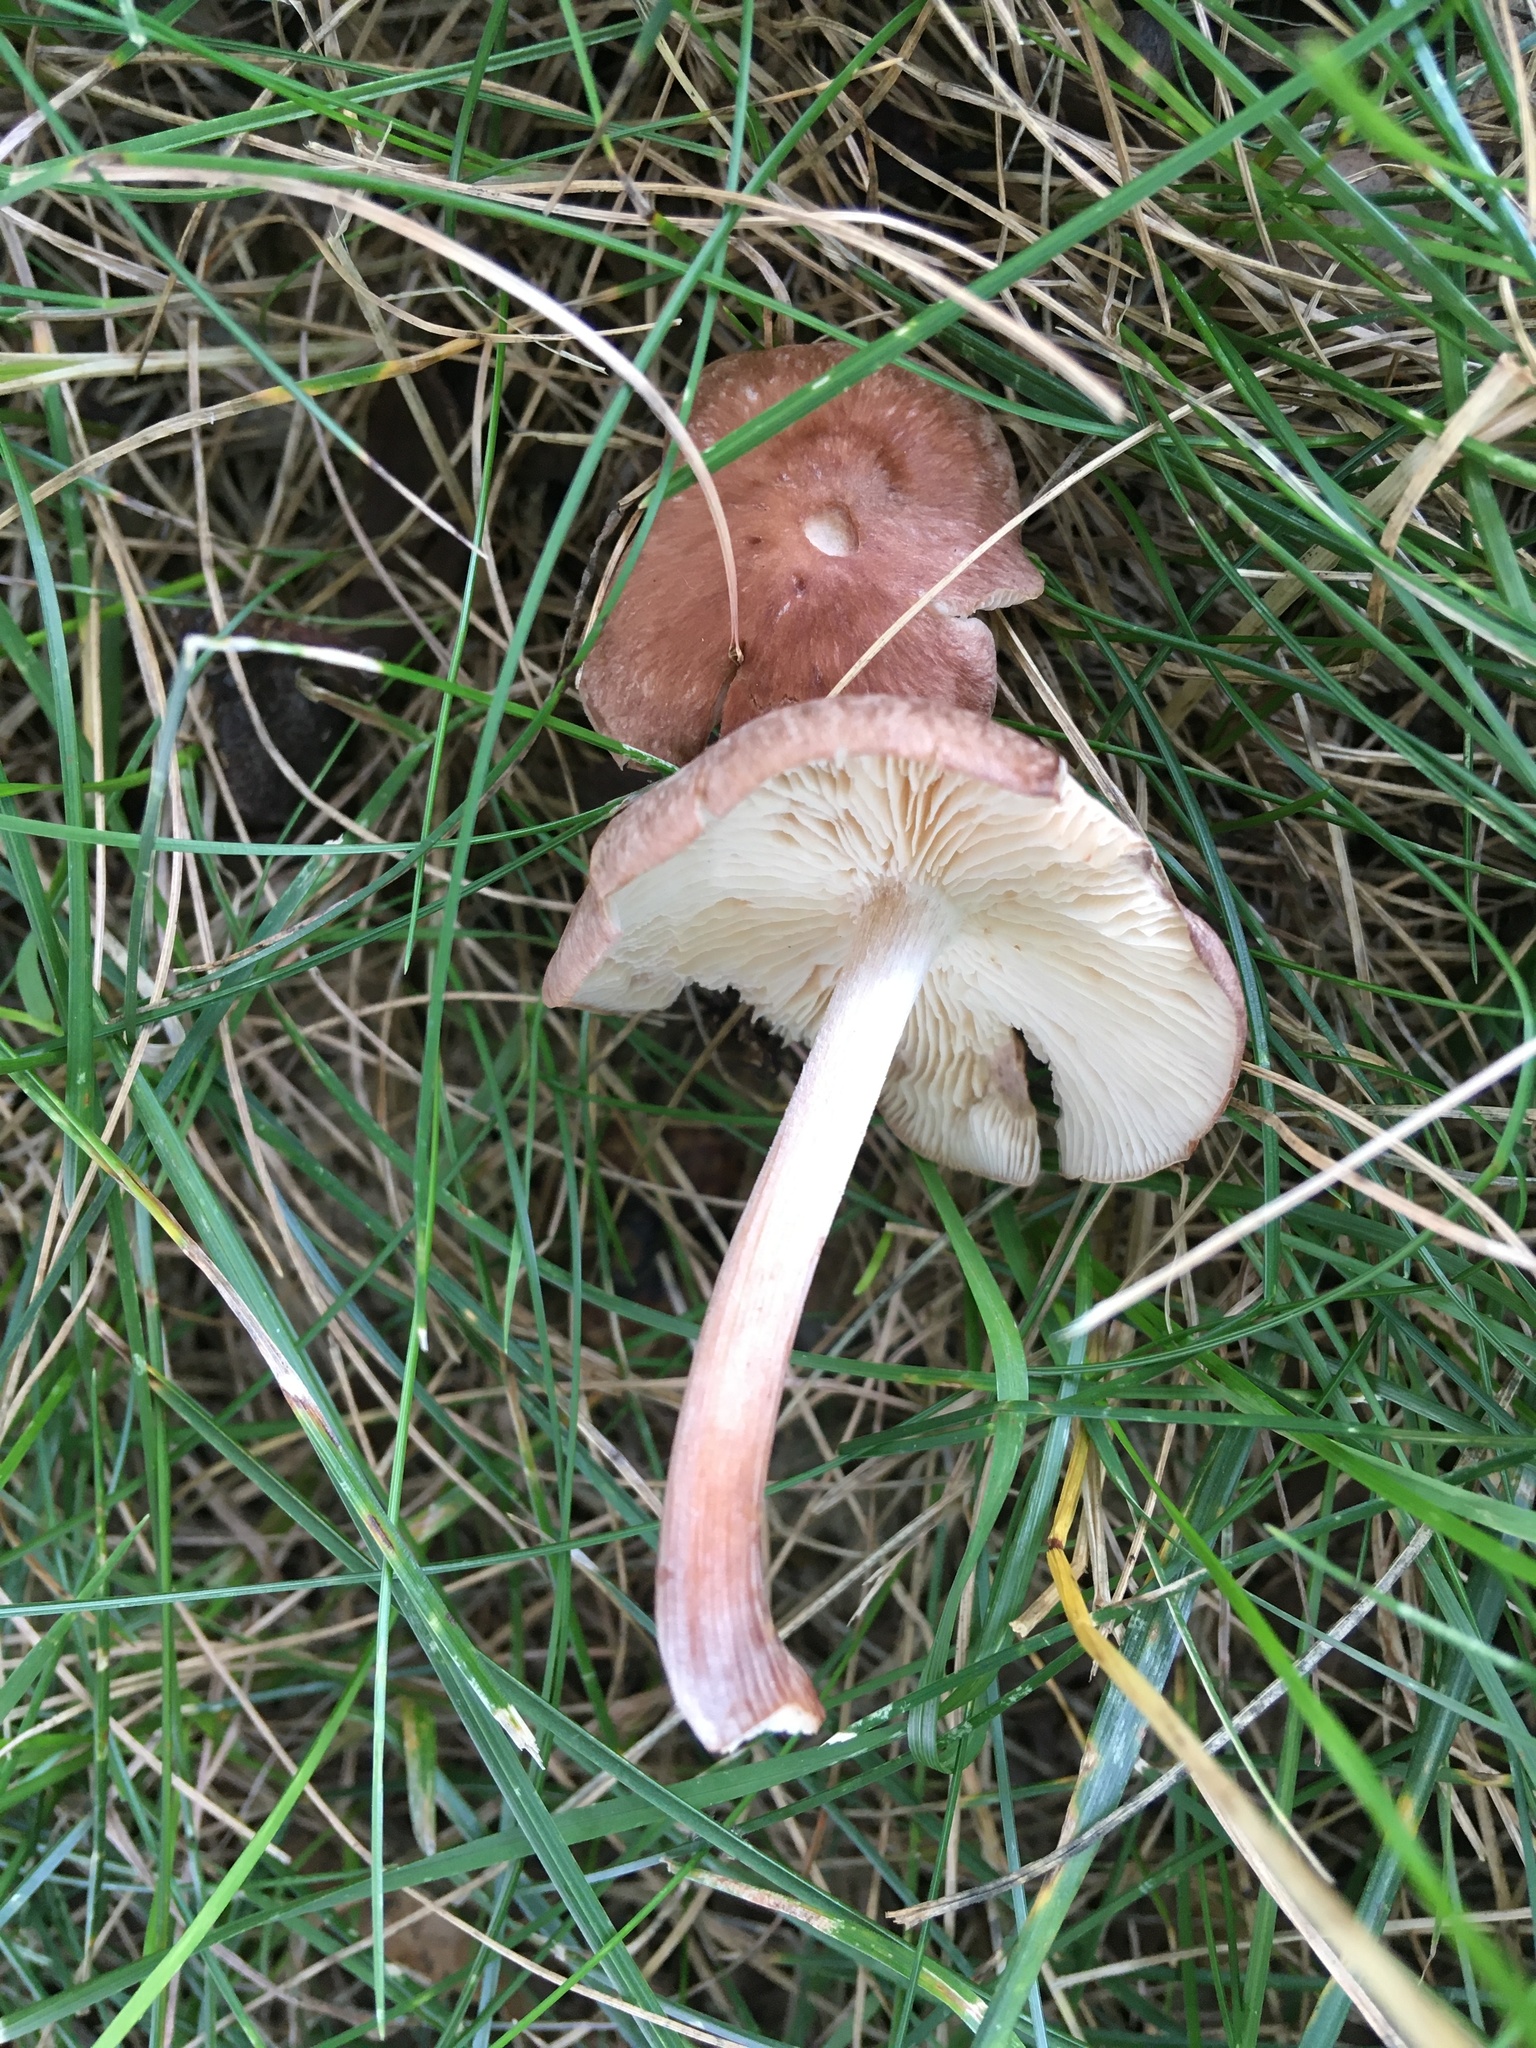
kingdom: Fungi
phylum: Basidiomycota
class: Agaricomycetes
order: Agaricales
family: Omphalotaceae
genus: Collybiopsis
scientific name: Collybiopsis luxurians
